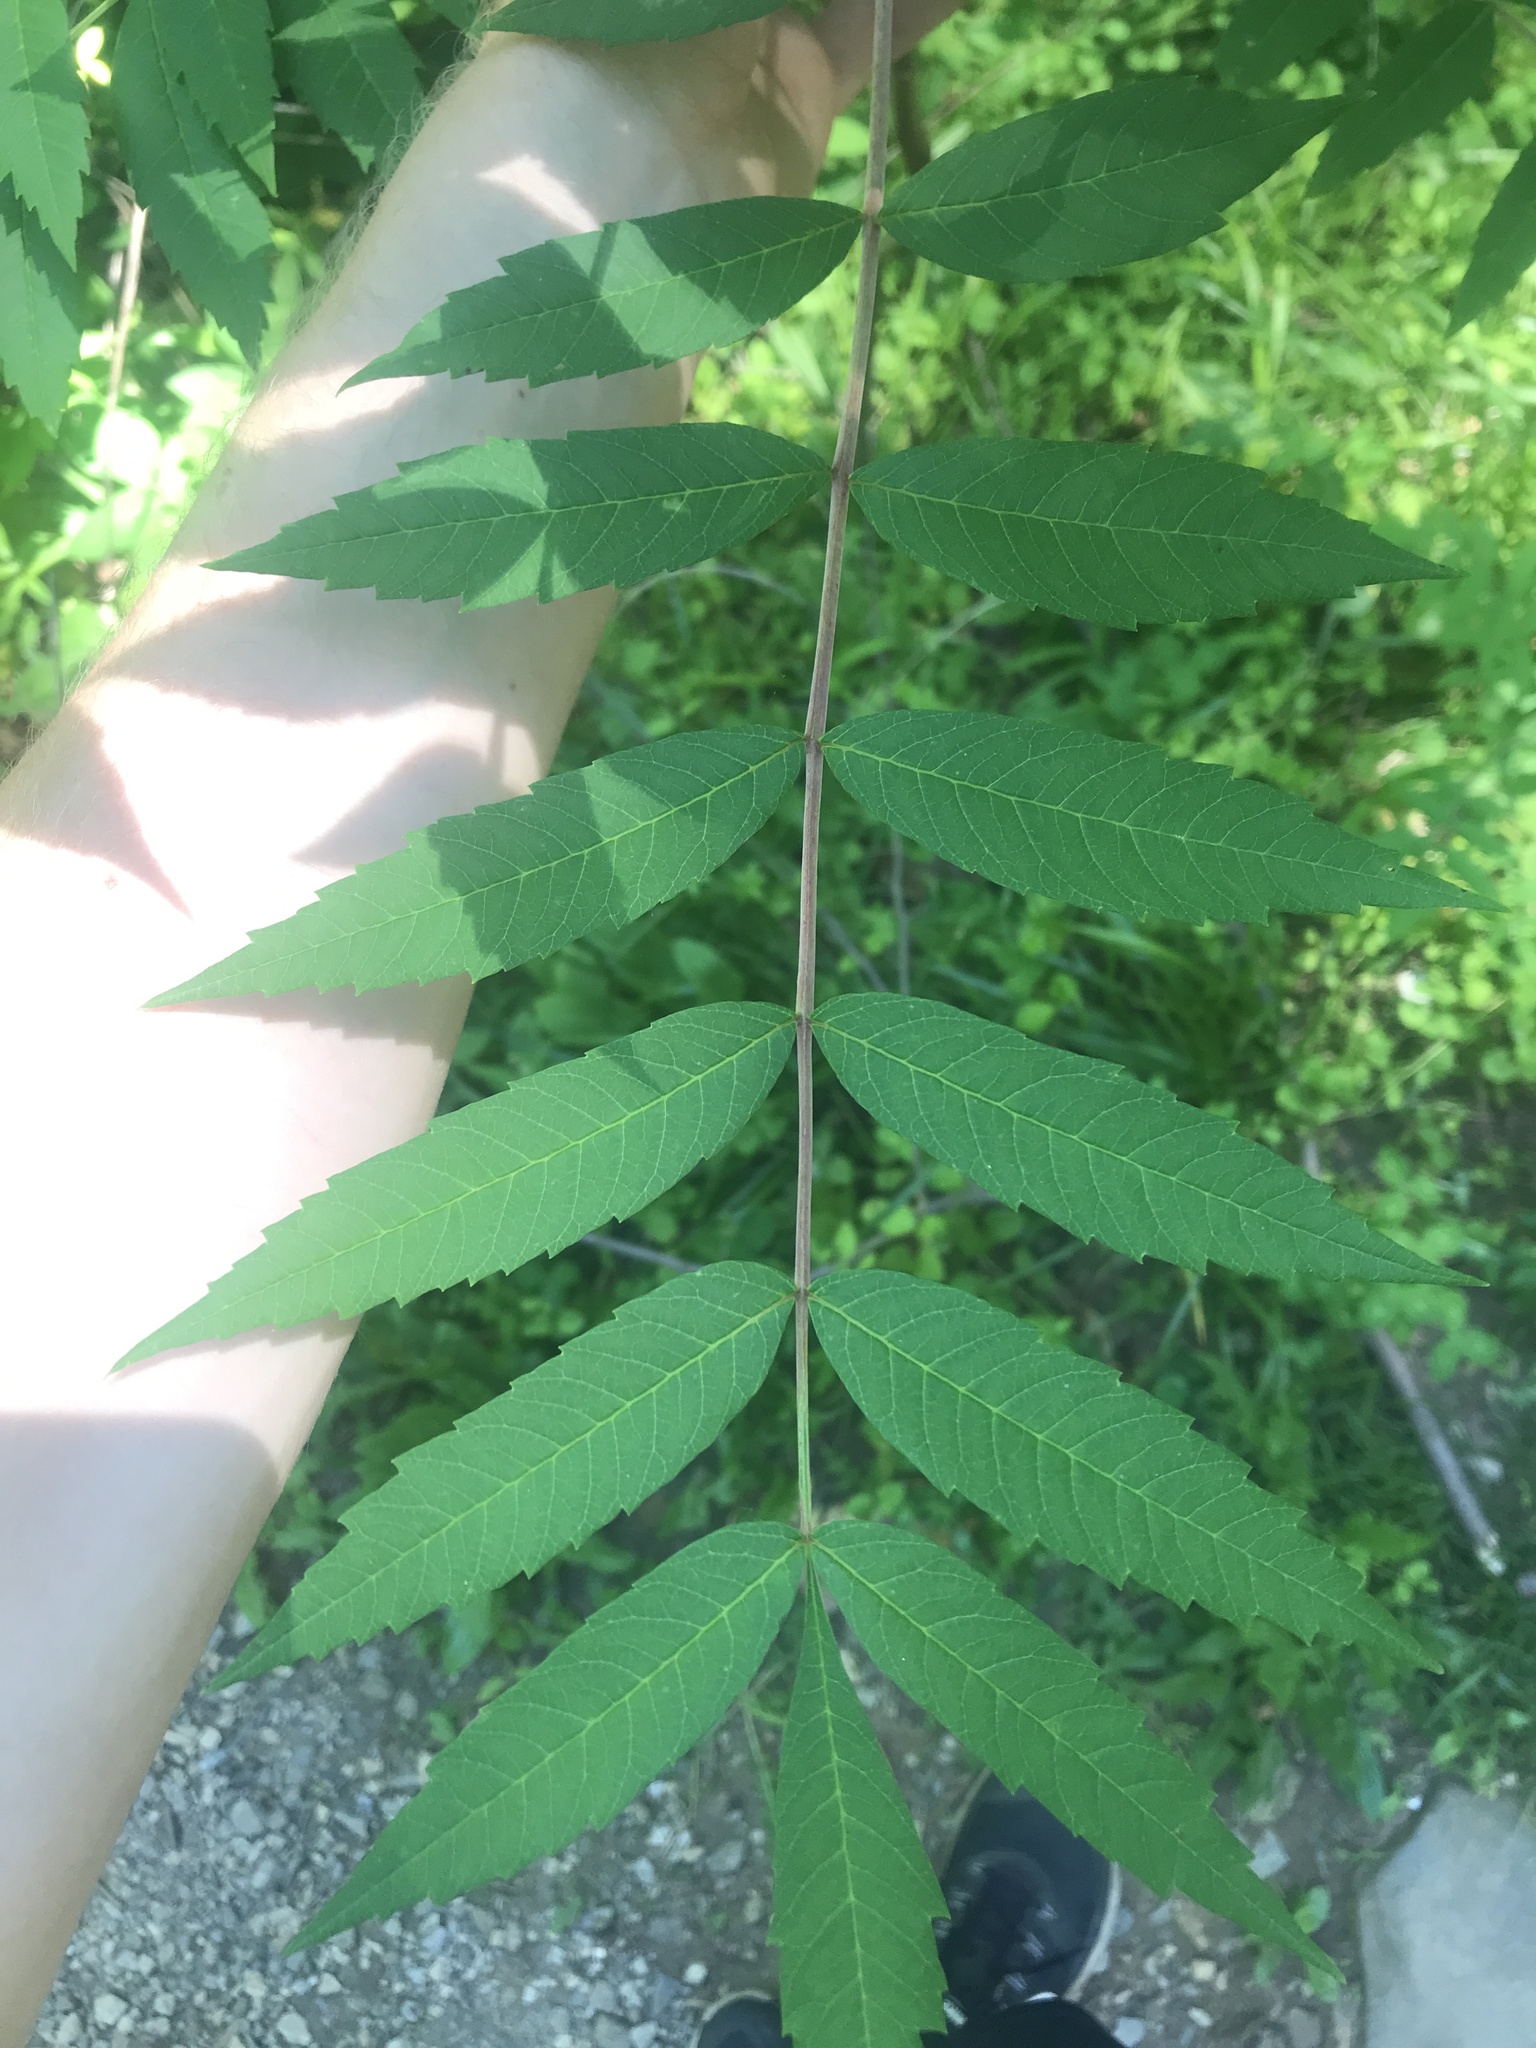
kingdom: Plantae
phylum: Tracheophyta
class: Magnoliopsida
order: Sapindales
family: Anacardiaceae
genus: Rhus
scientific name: Rhus glabra
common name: Scarlet sumac
